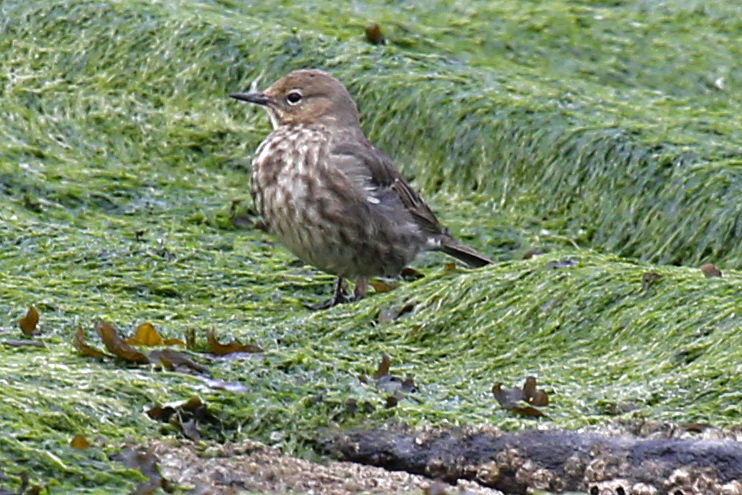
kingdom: Animalia
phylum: Chordata
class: Aves
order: Passeriformes
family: Motacillidae
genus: Anthus
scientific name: Anthus petrosus
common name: Eurasian rock pipit
